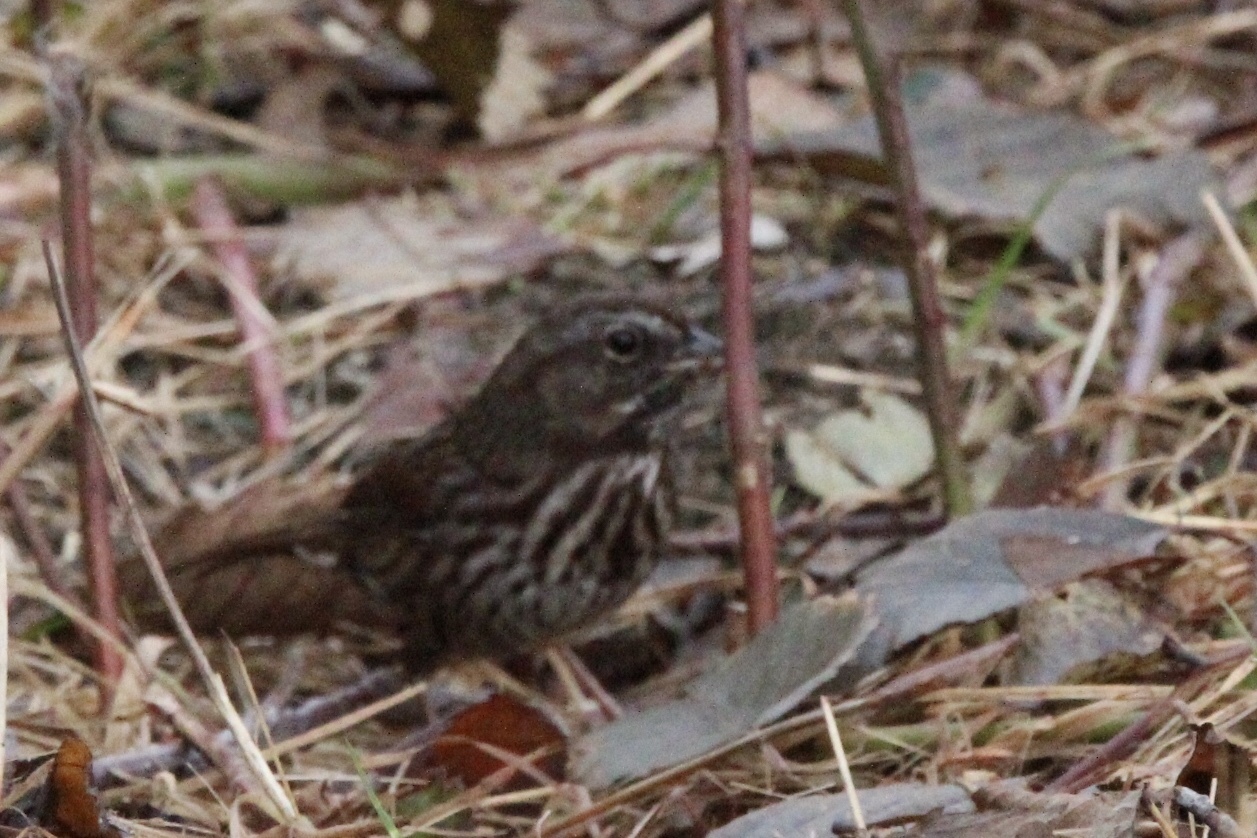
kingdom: Animalia
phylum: Chordata
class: Aves
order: Passeriformes
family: Passerellidae
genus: Melospiza
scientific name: Melospiza melodia
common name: Song sparrow
